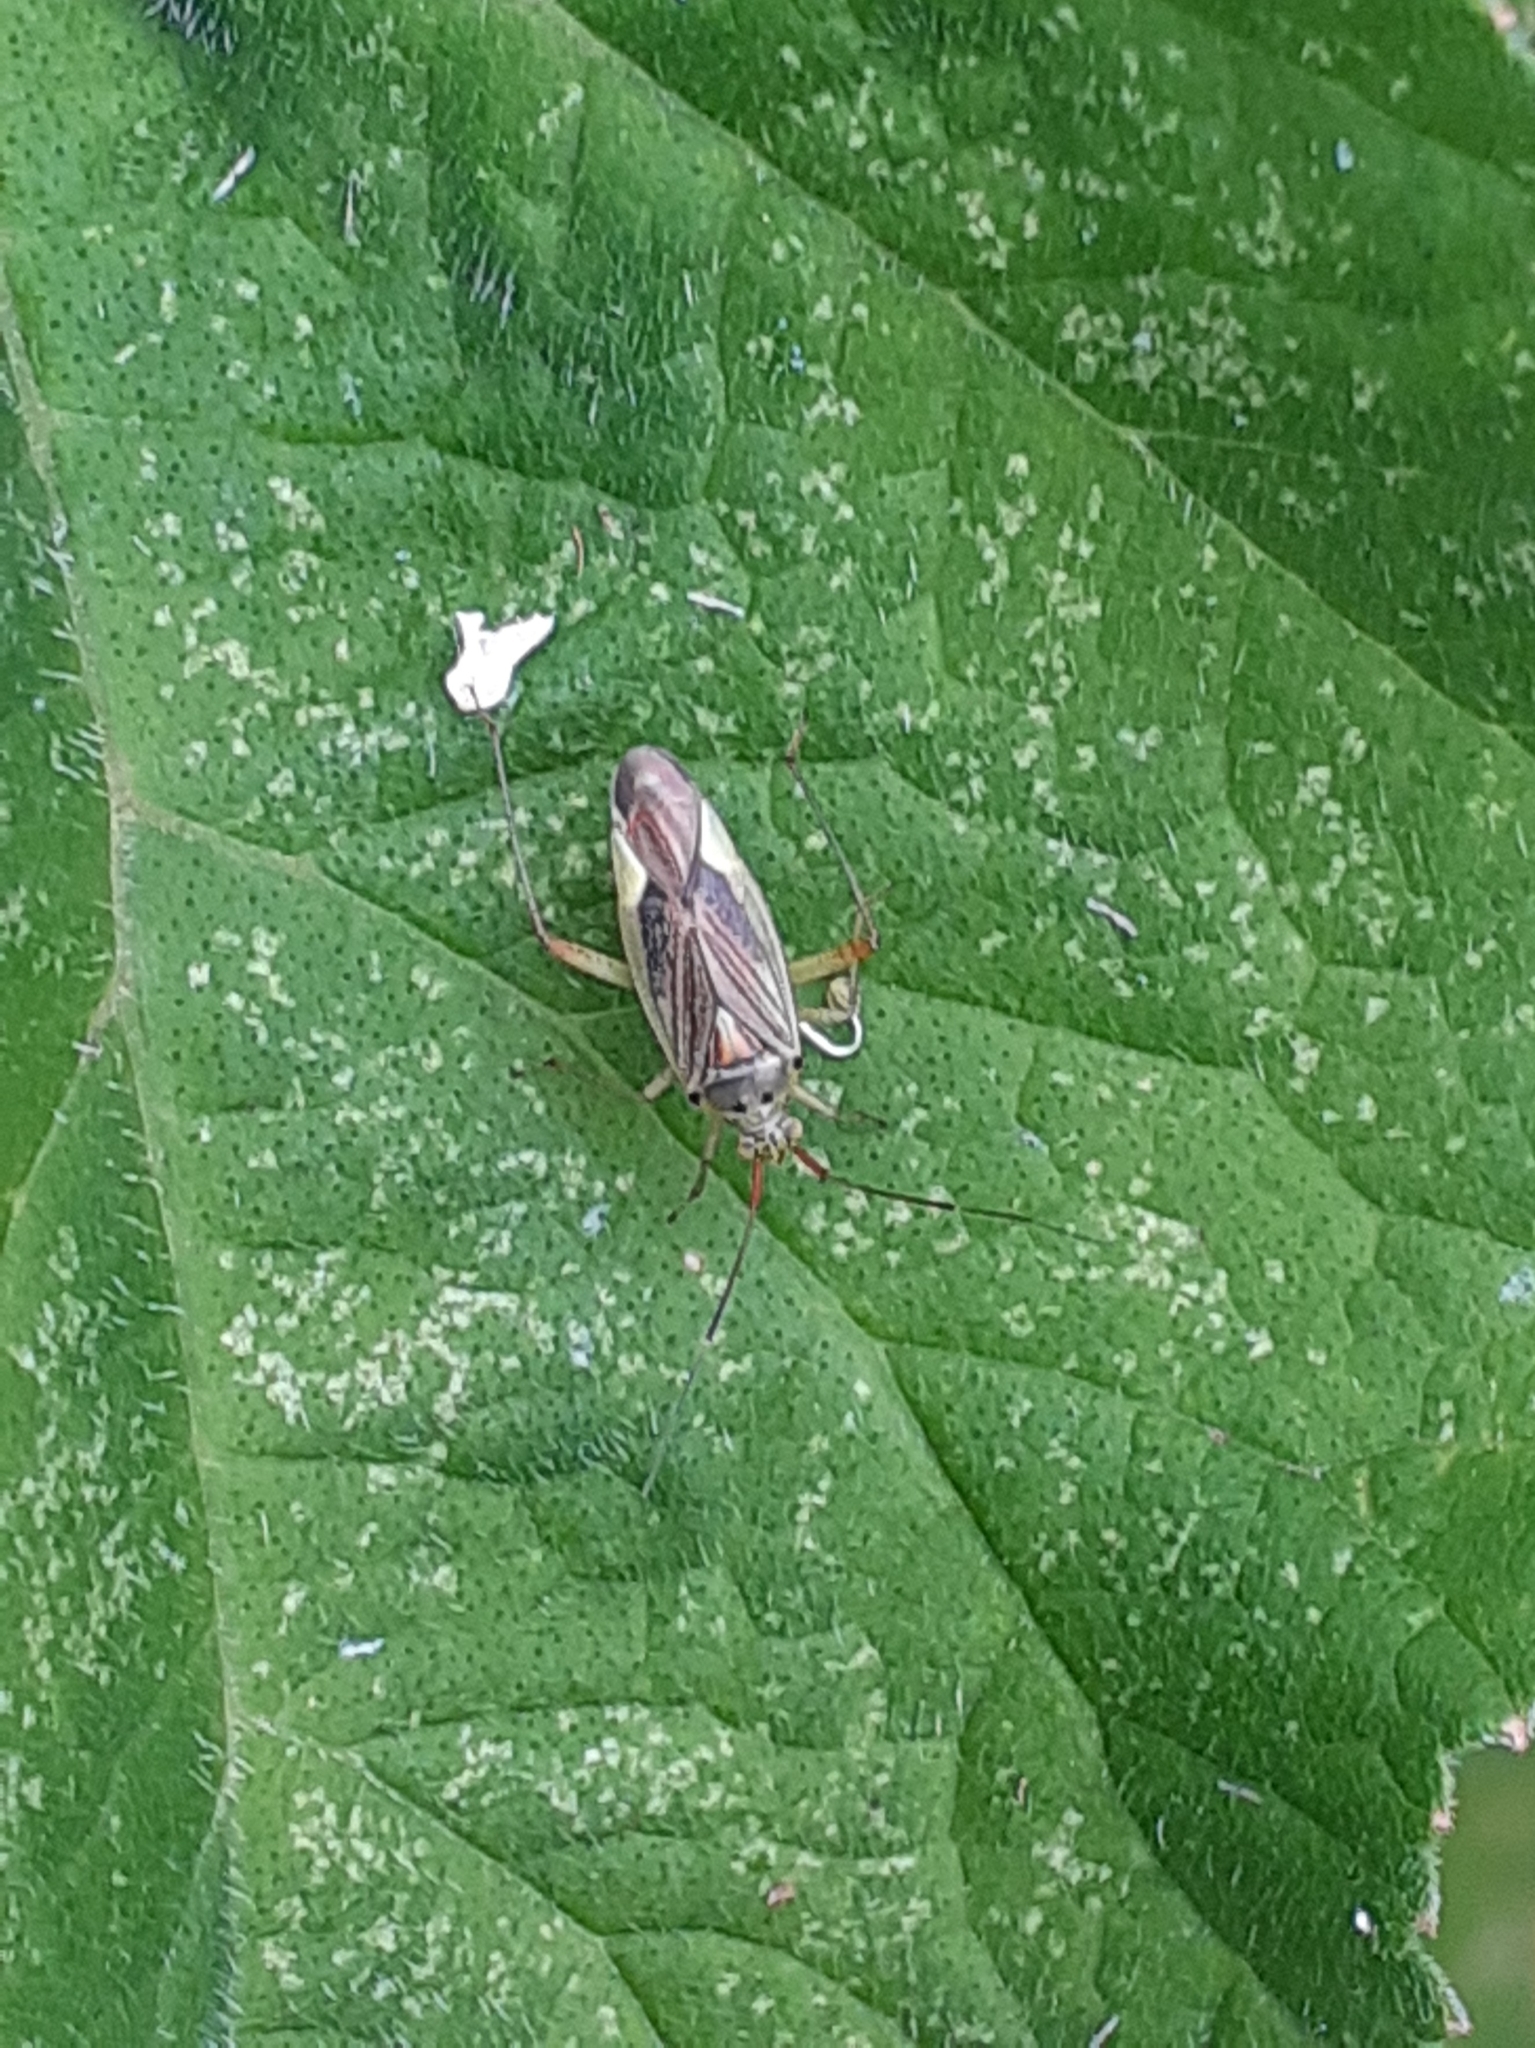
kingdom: Animalia
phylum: Arthropoda
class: Insecta
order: Hemiptera
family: Miridae
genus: Closterotomus
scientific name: Closterotomus trivialis
